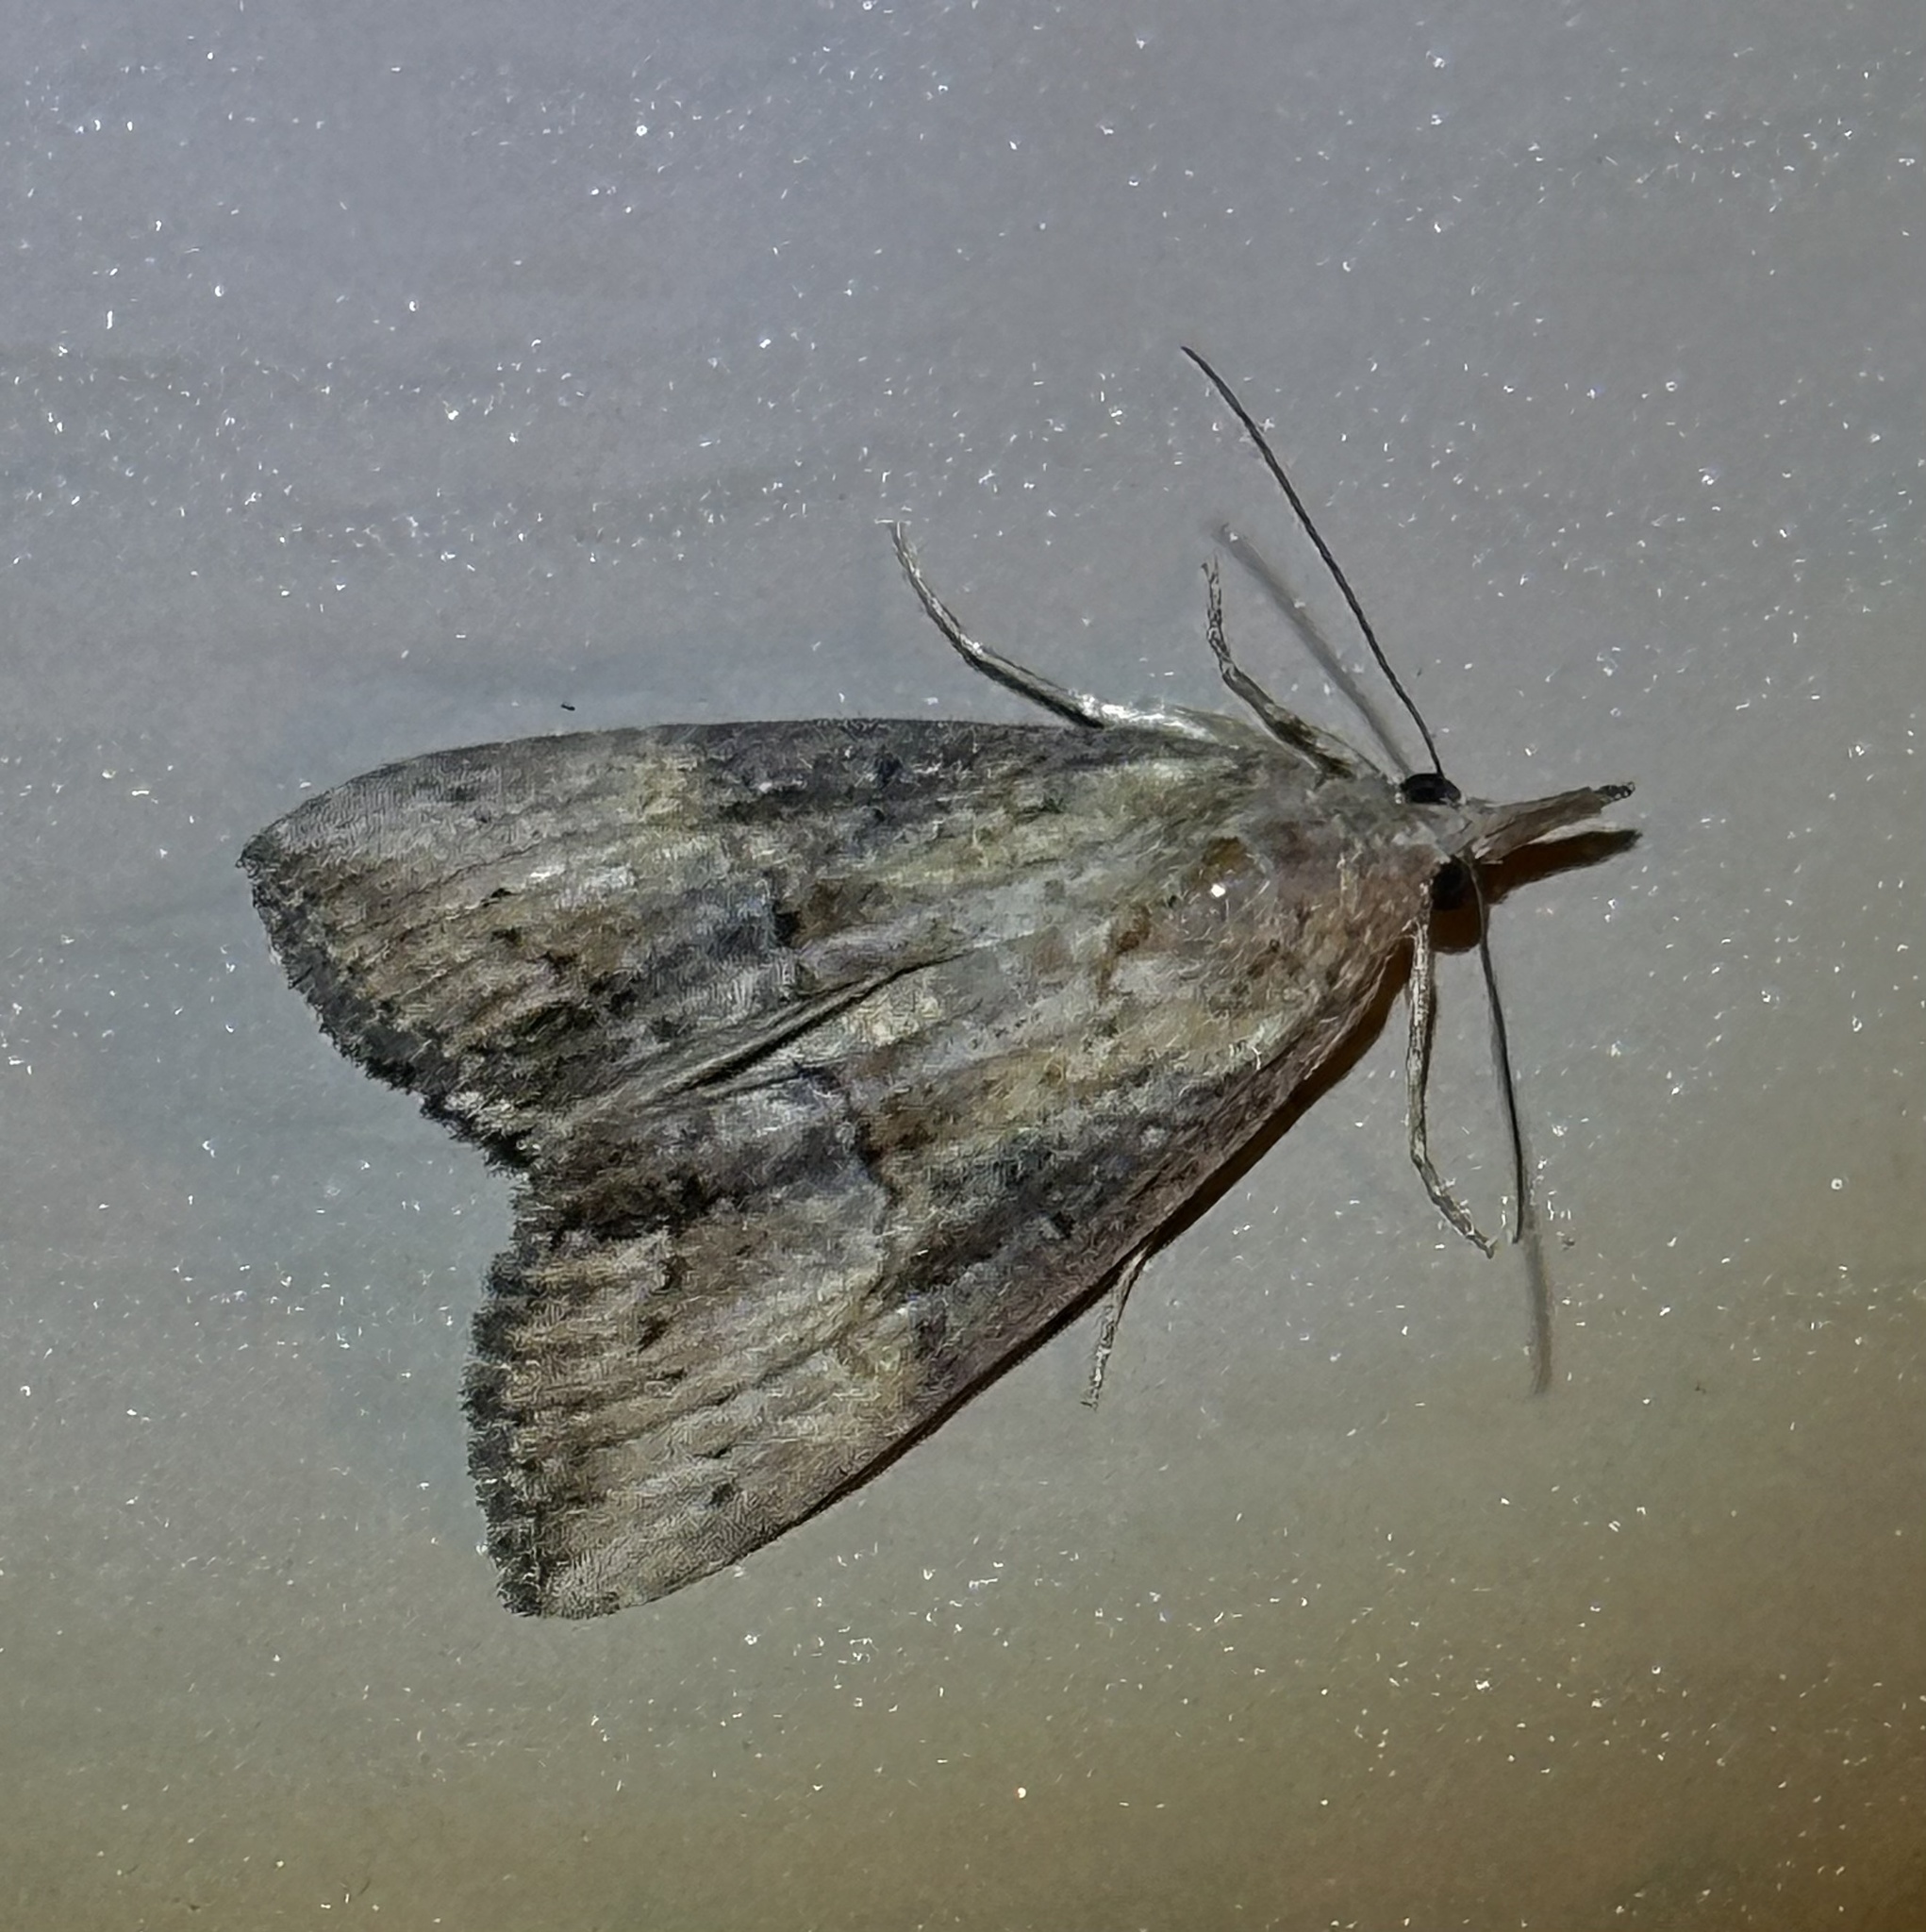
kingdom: Animalia
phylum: Arthropoda
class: Insecta
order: Lepidoptera
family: Erebidae
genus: Hypena
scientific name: Hypena scabra
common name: Green cloverworm
